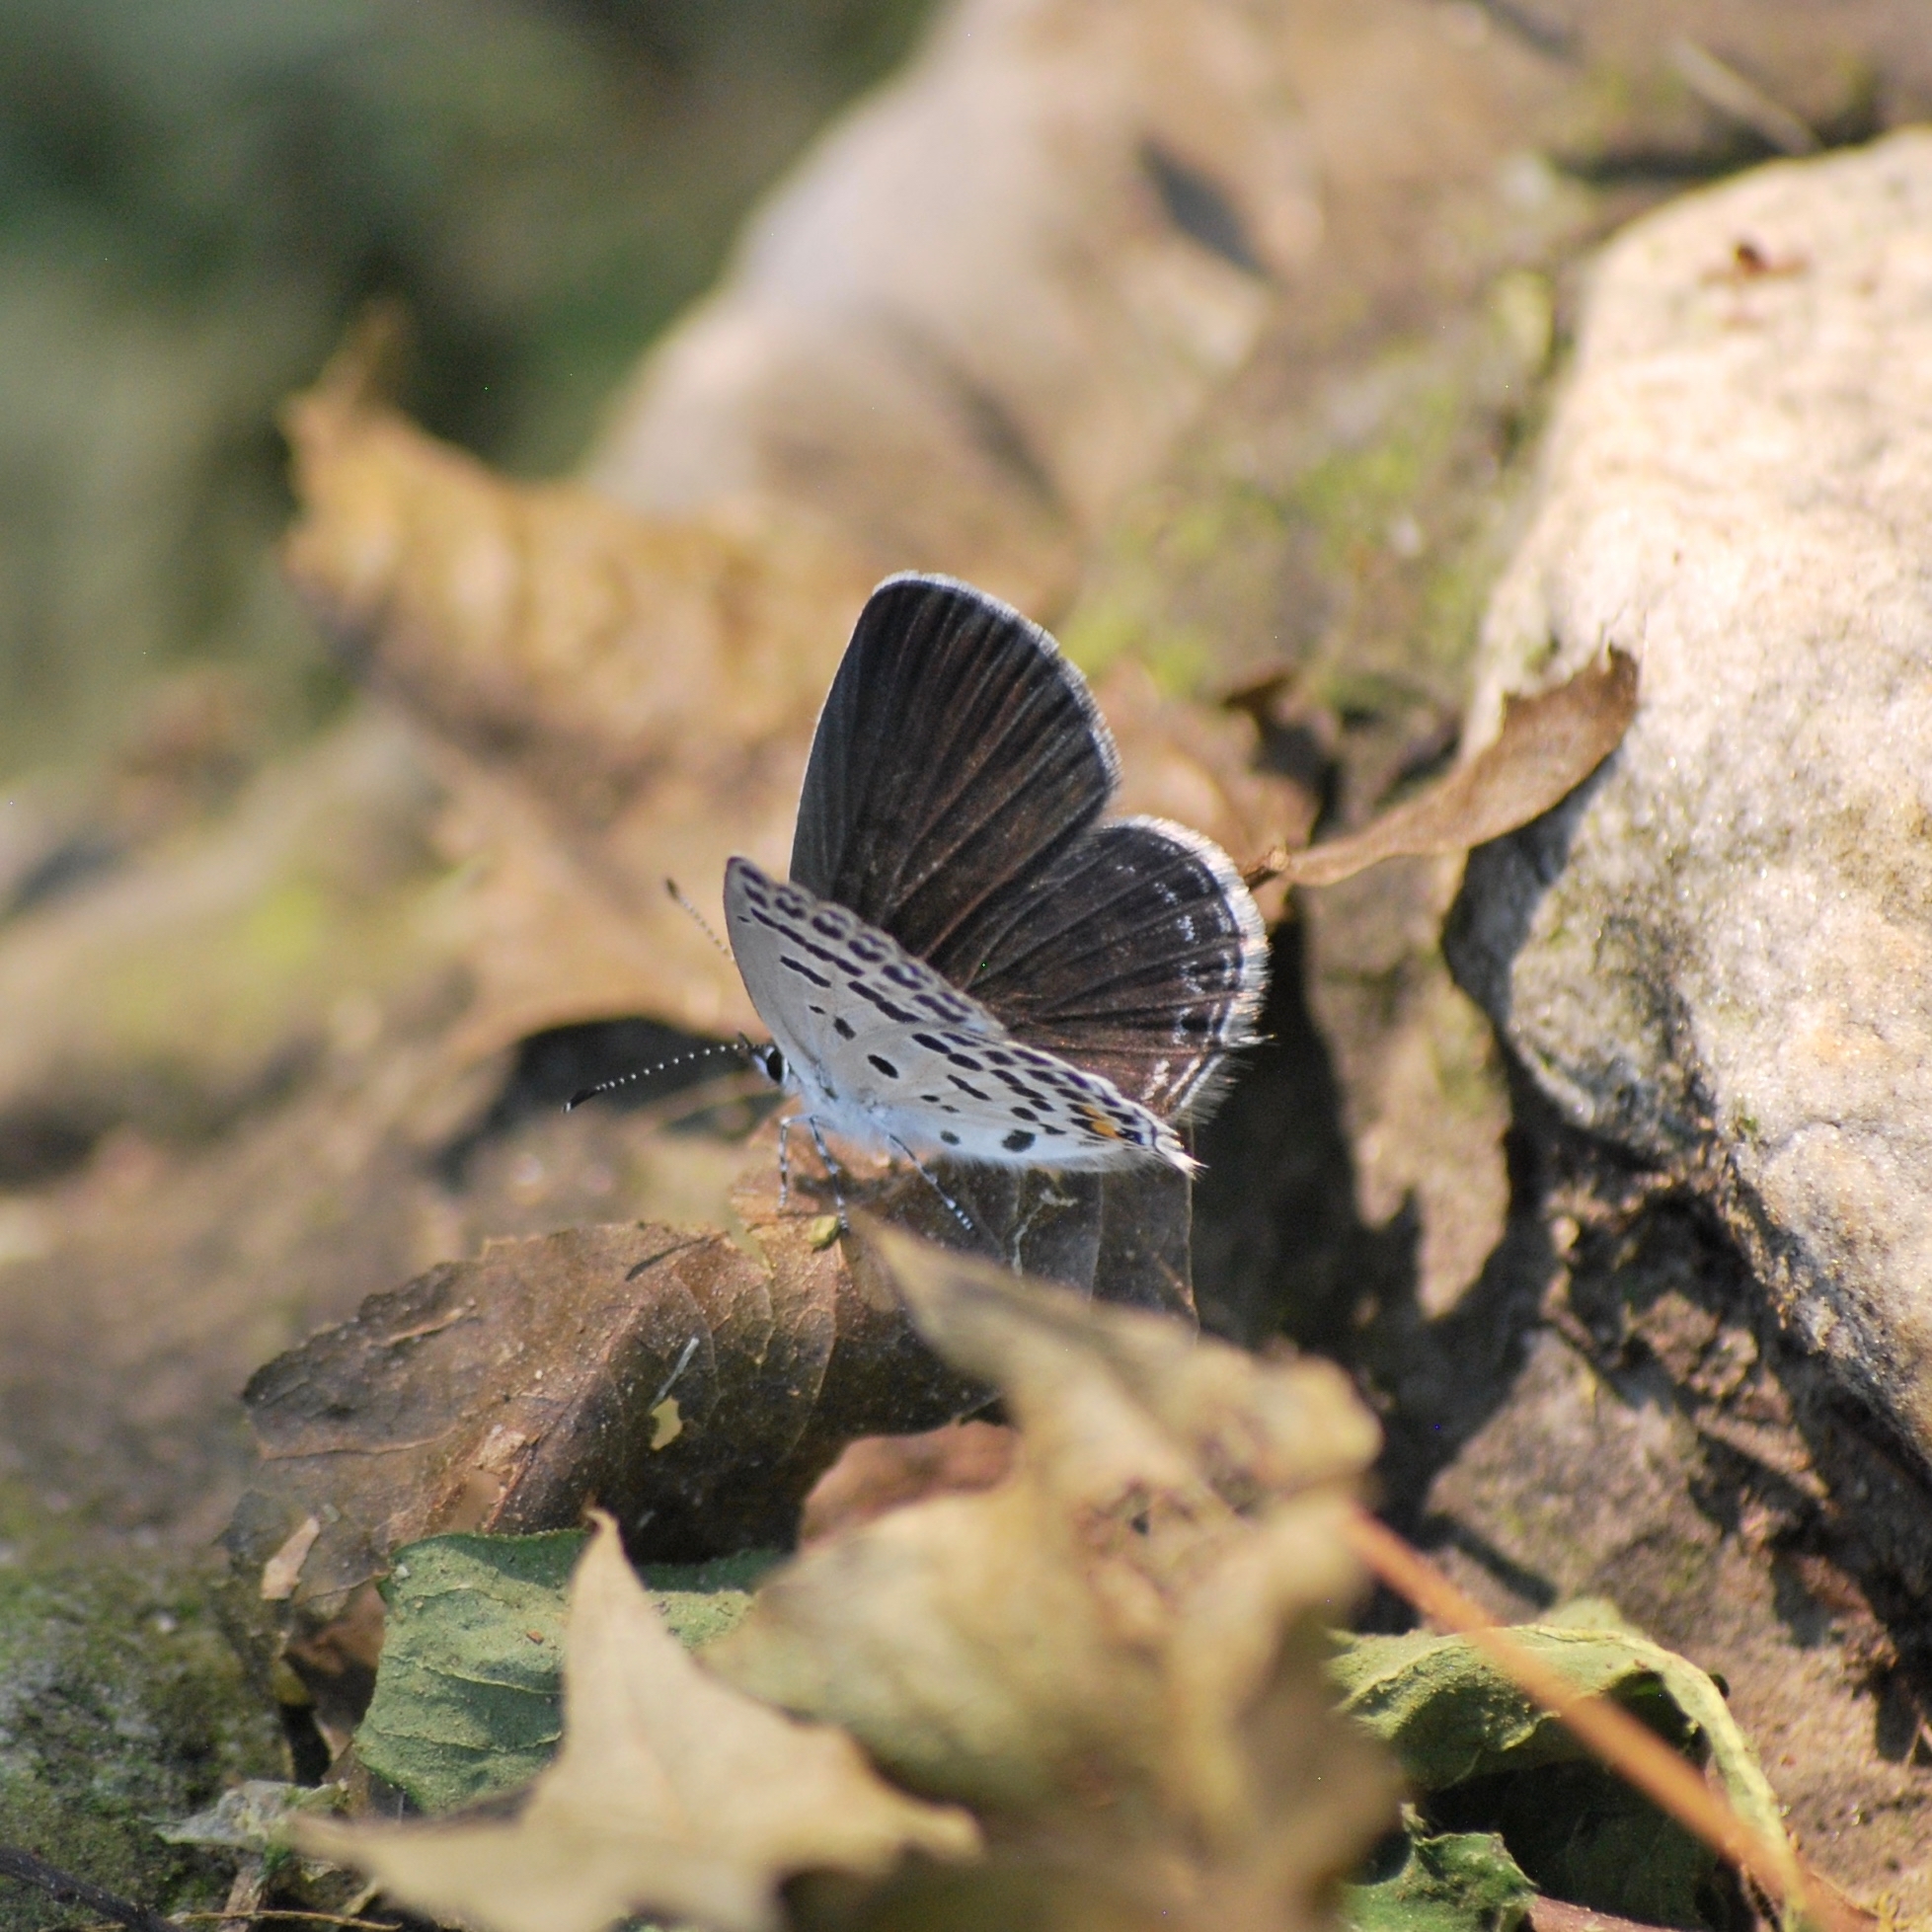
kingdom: Animalia
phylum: Arthropoda
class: Insecta
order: Lepidoptera
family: Lycaenidae
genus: Tongeia
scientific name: Tongeia filicaudis
